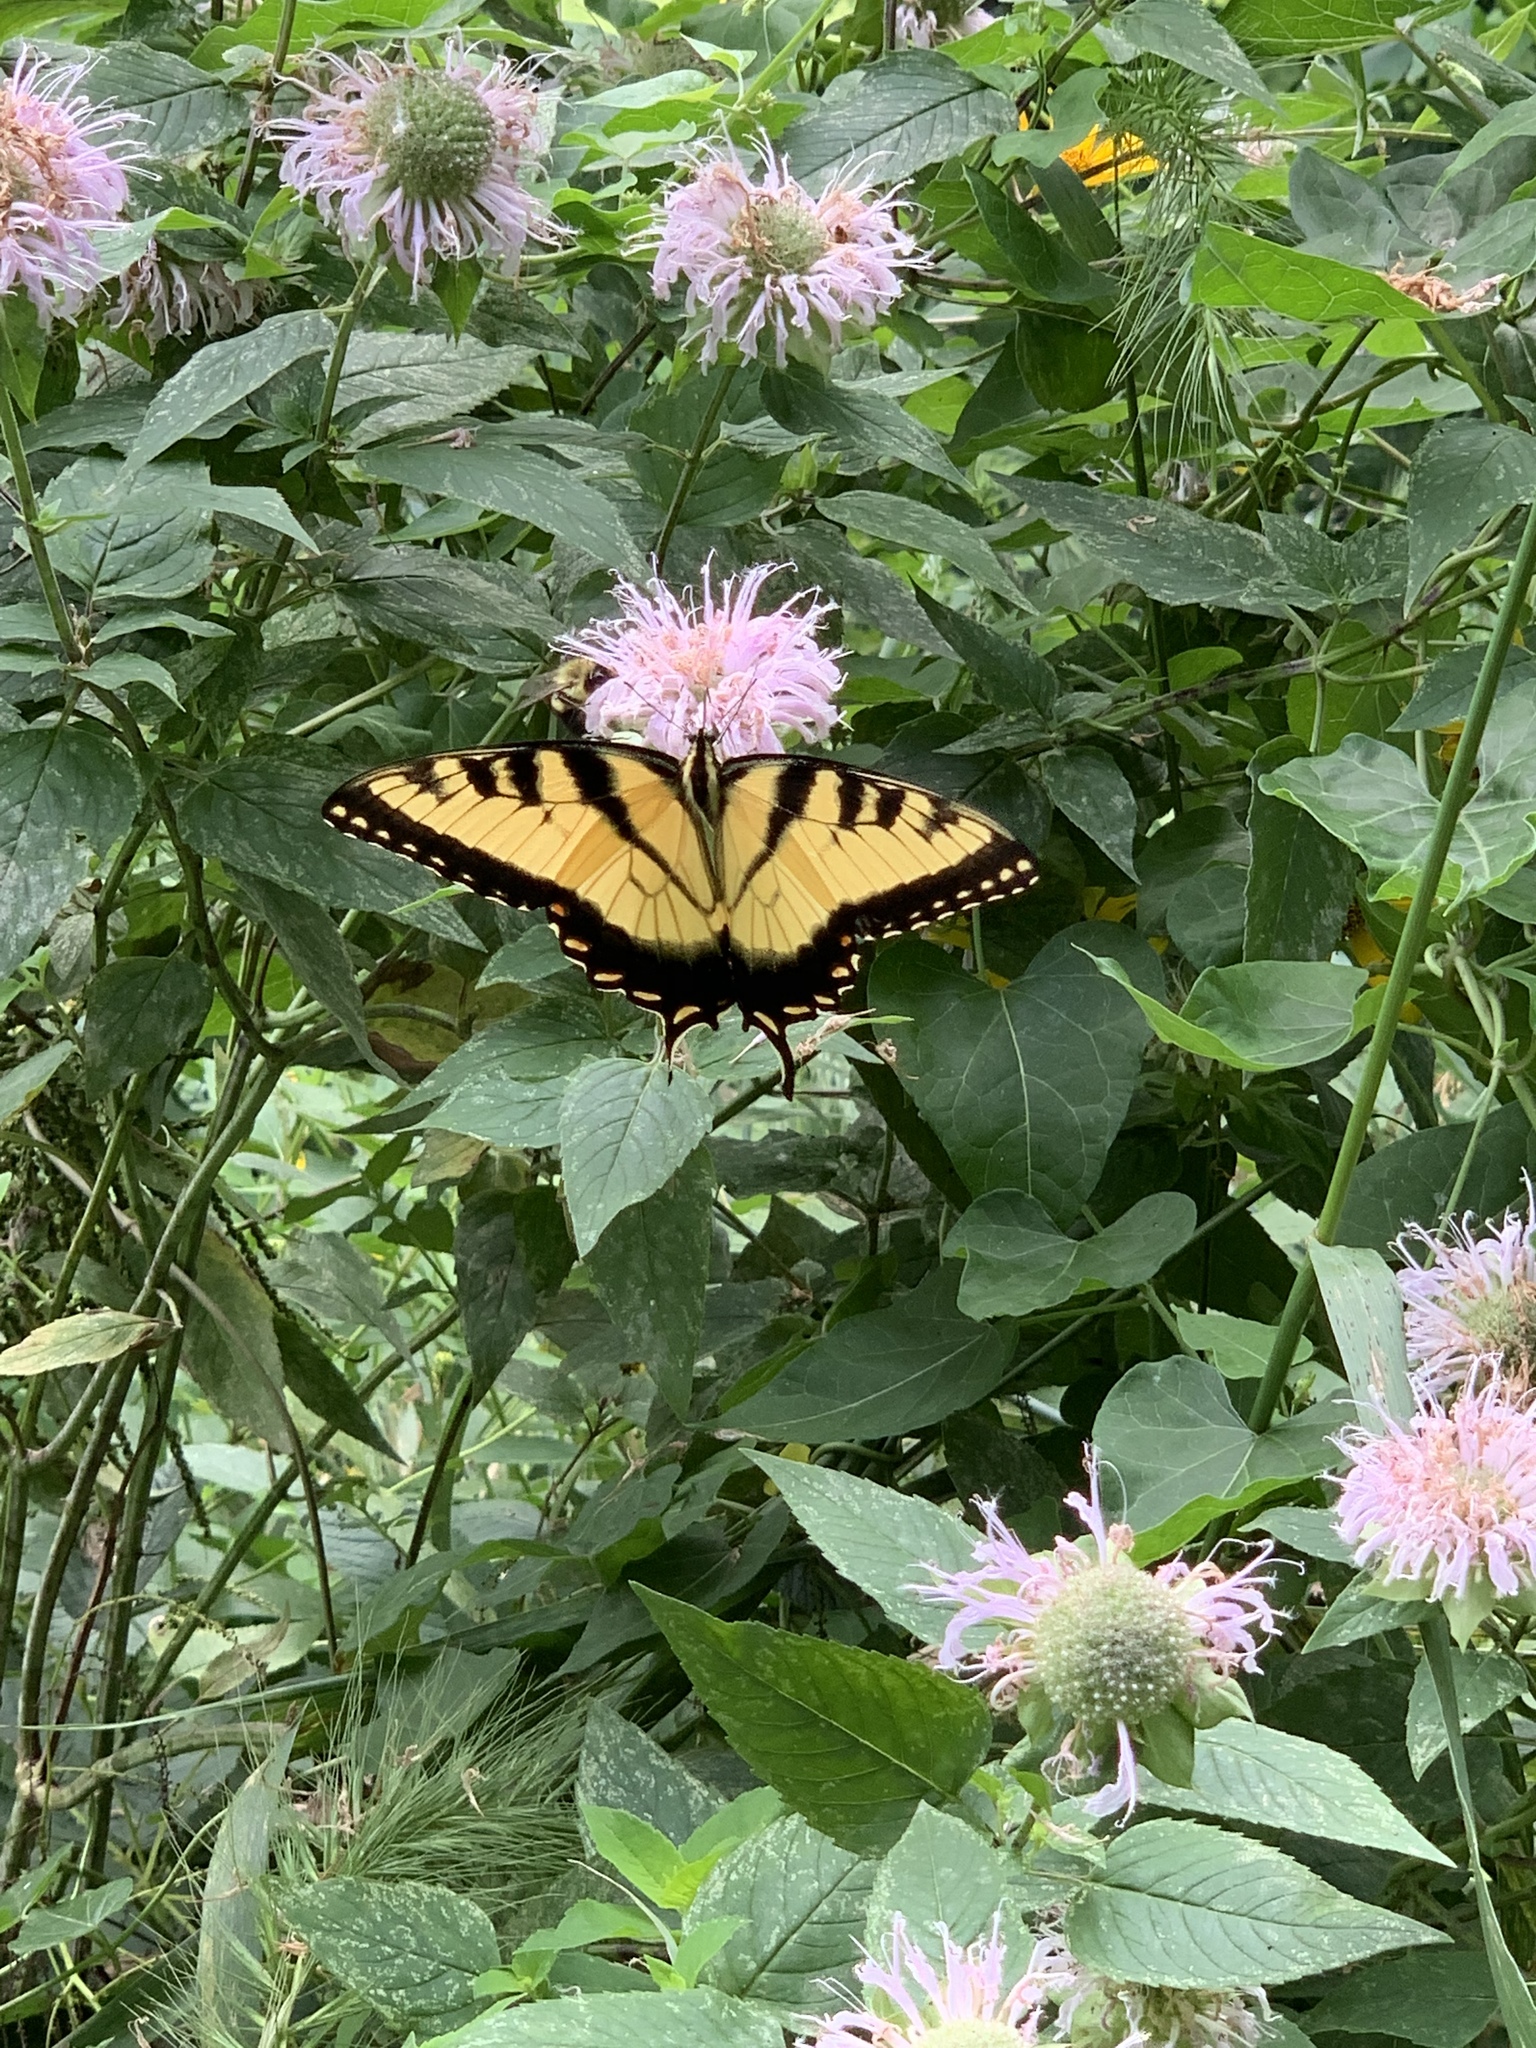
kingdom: Animalia
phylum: Arthropoda
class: Insecta
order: Lepidoptera
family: Papilionidae
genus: Papilio
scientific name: Papilio glaucus
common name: Tiger swallowtail
